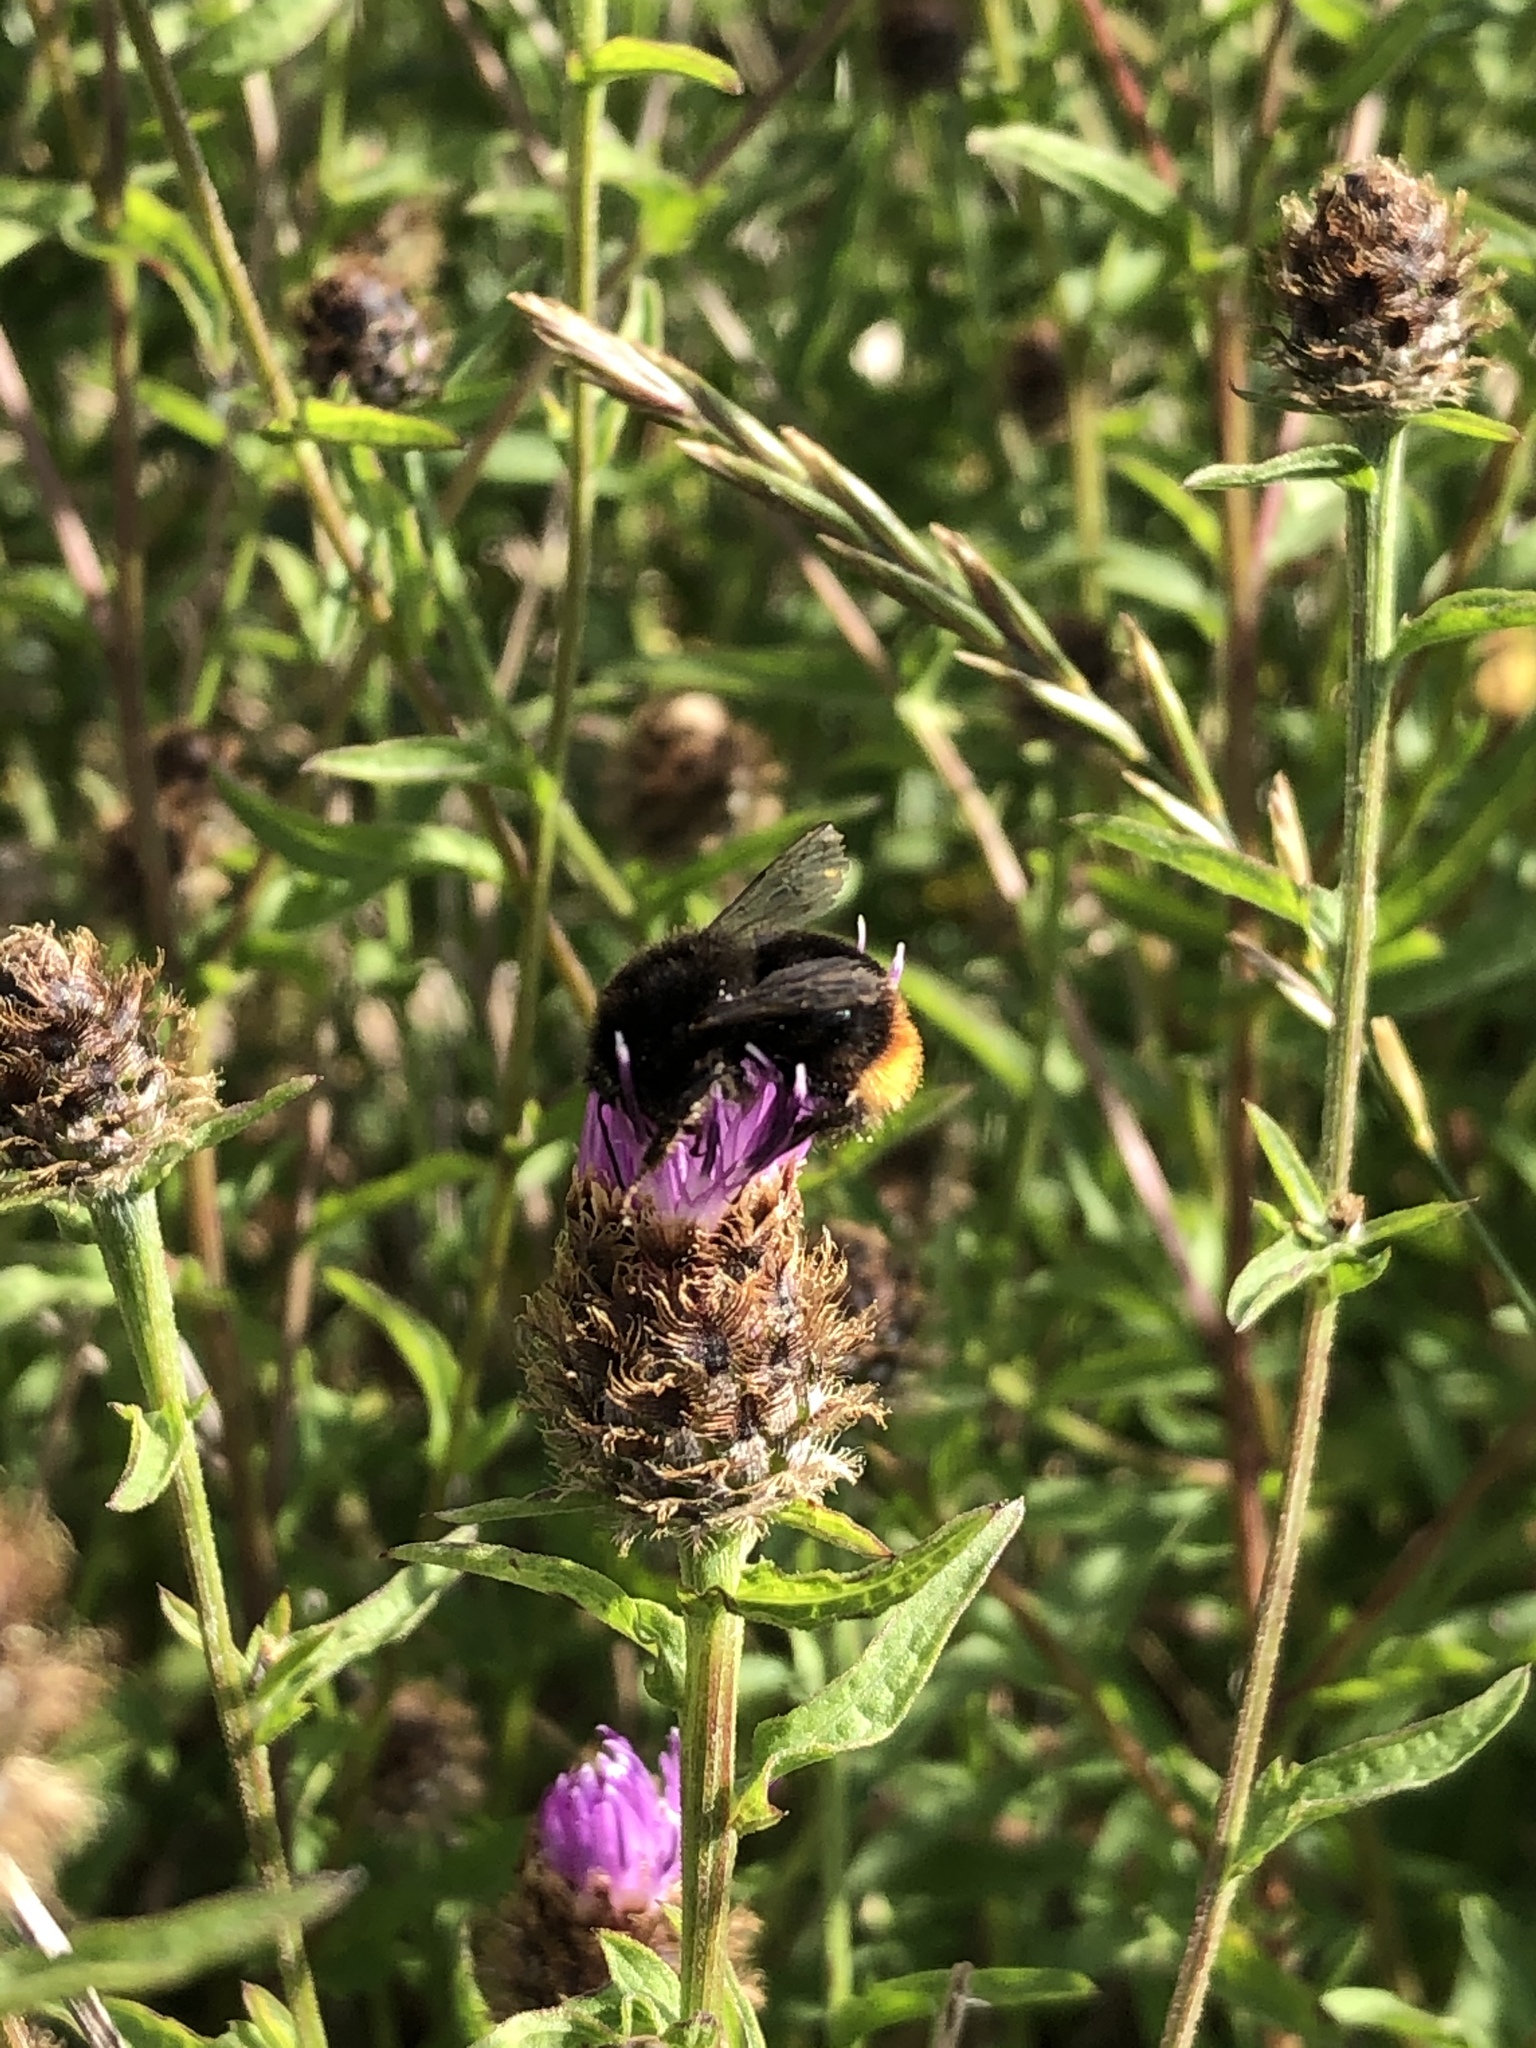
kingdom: Animalia
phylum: Arthropoda
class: Insecta
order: Hymenoptera
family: Apidae
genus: Bombus
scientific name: Bombus lapidarius
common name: Large red-tailed humble-bee
